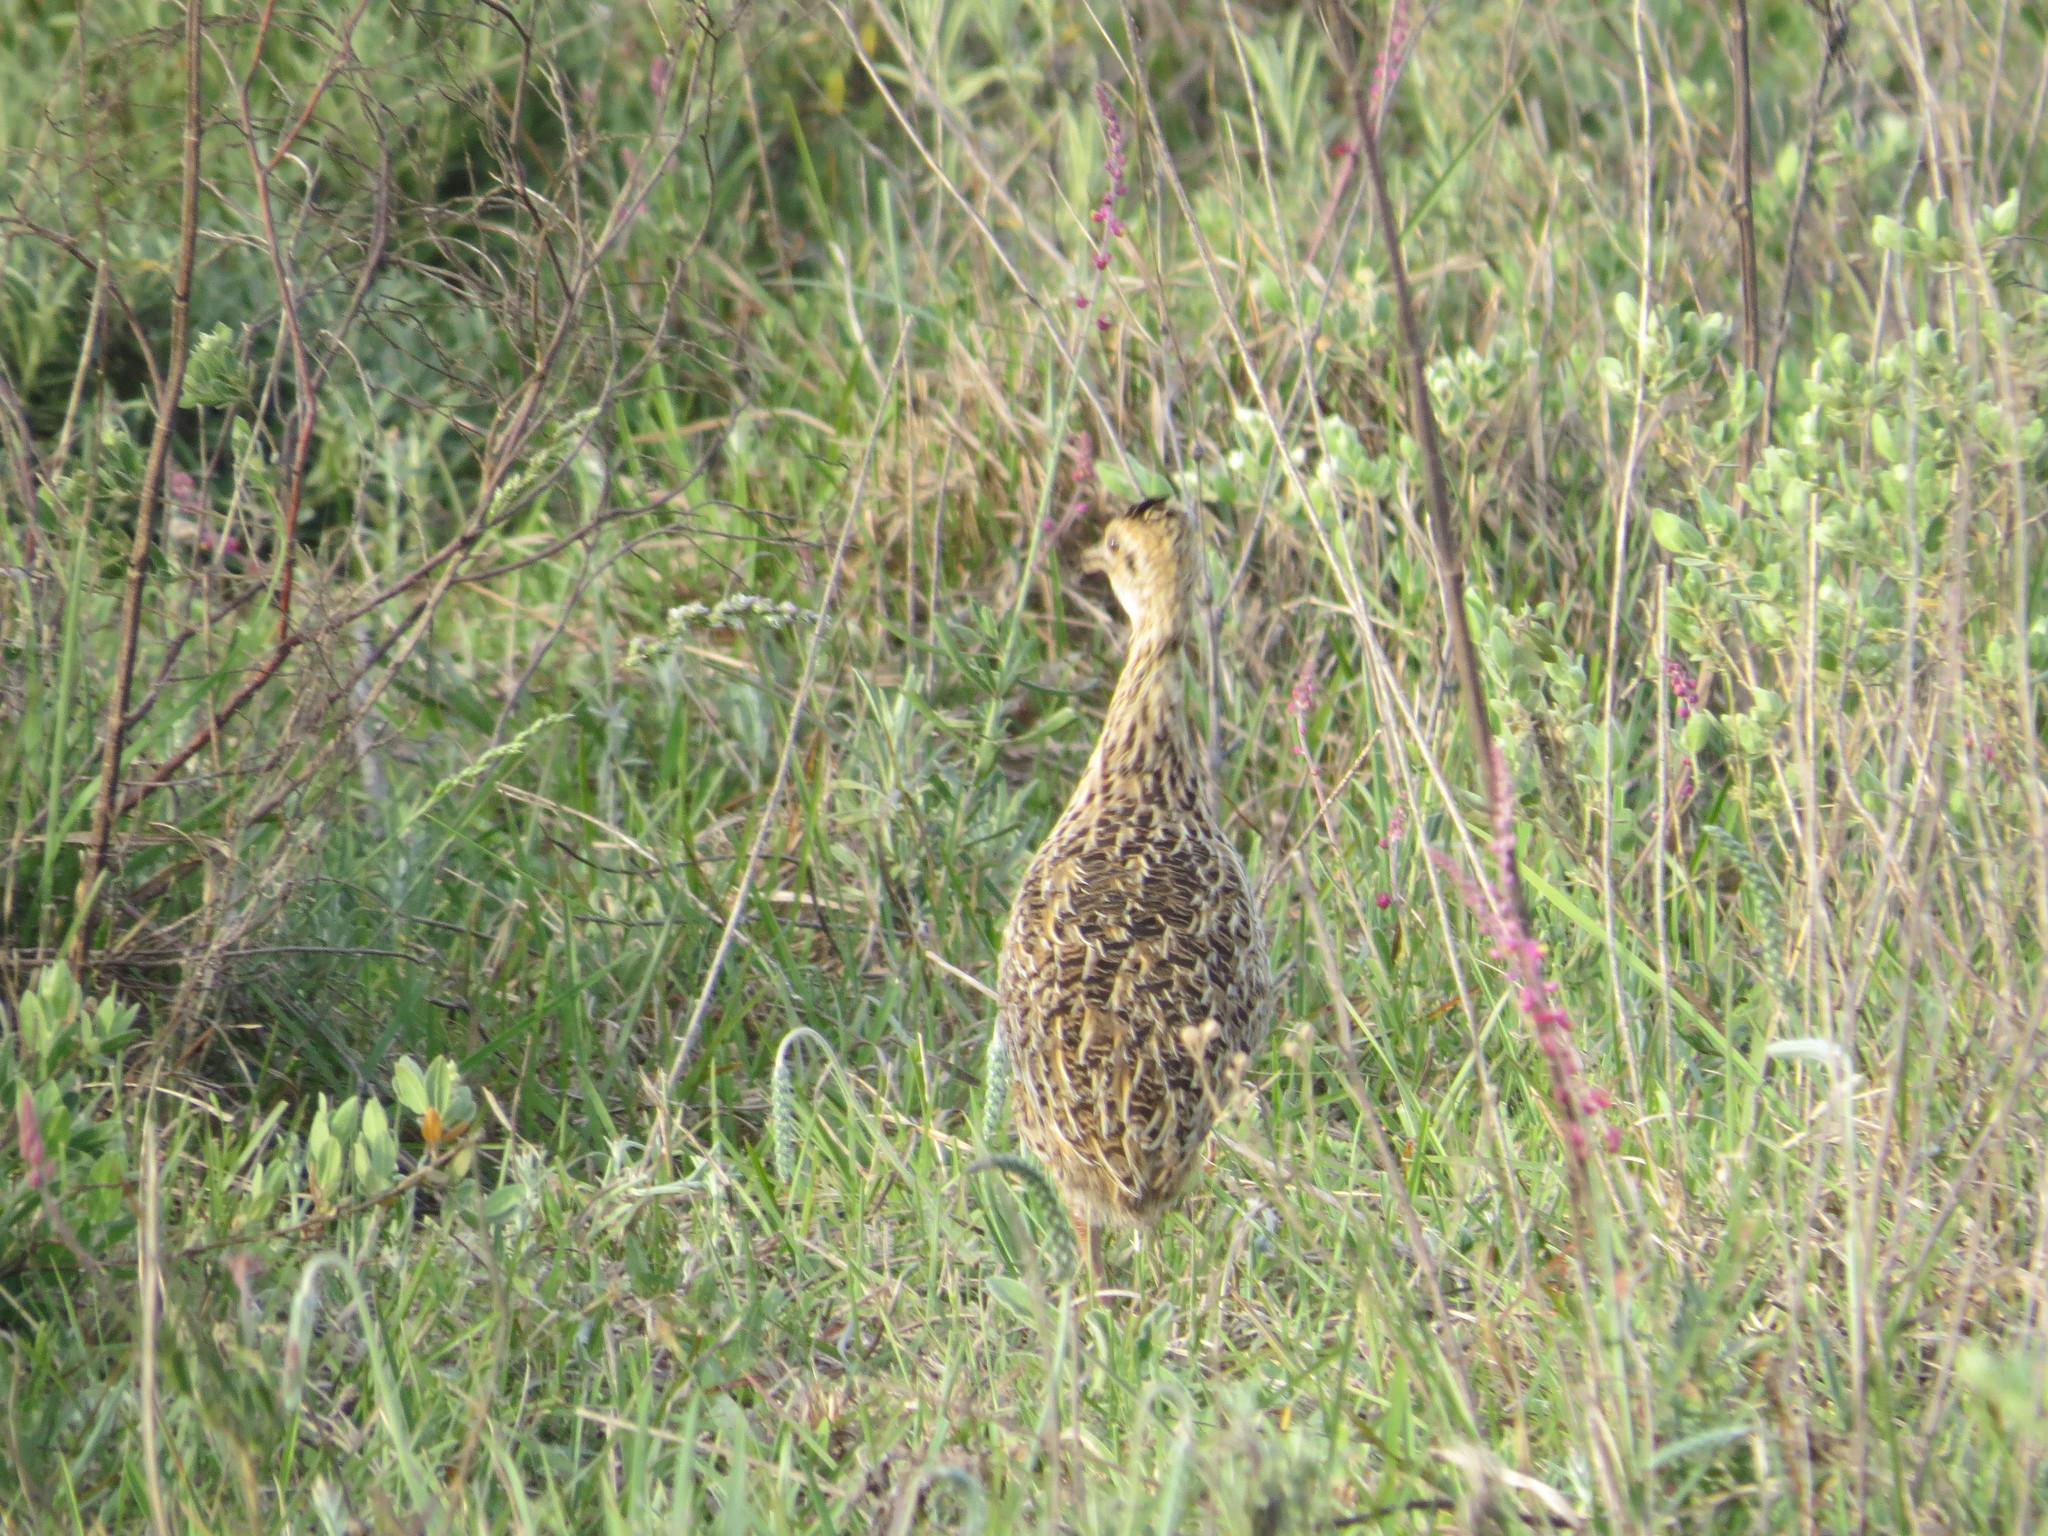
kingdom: Animalia
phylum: Chordata
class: Aves
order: Tinamiformes
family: Tinamidae
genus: Nothura
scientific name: Nothura maculosa
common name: Spotted nothura
